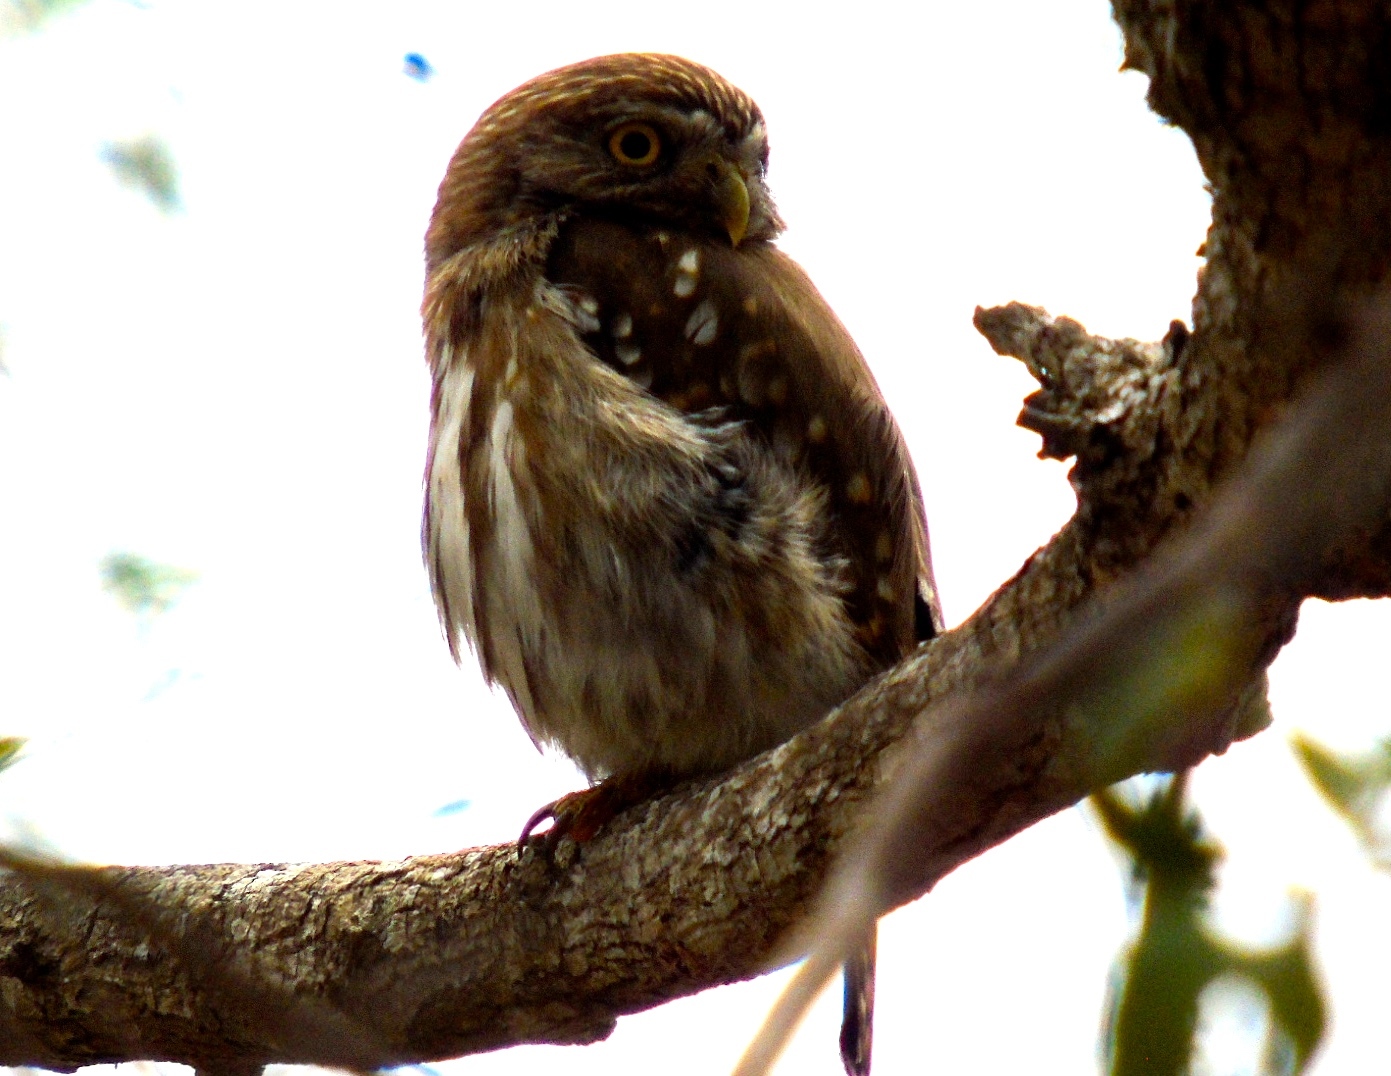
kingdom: Animalia
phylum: Chordata
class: Aves
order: Strigiformes
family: Strigidae
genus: Glaucidium
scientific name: Glaucidium brasilianum
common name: Ferruginous pygmy-owl
